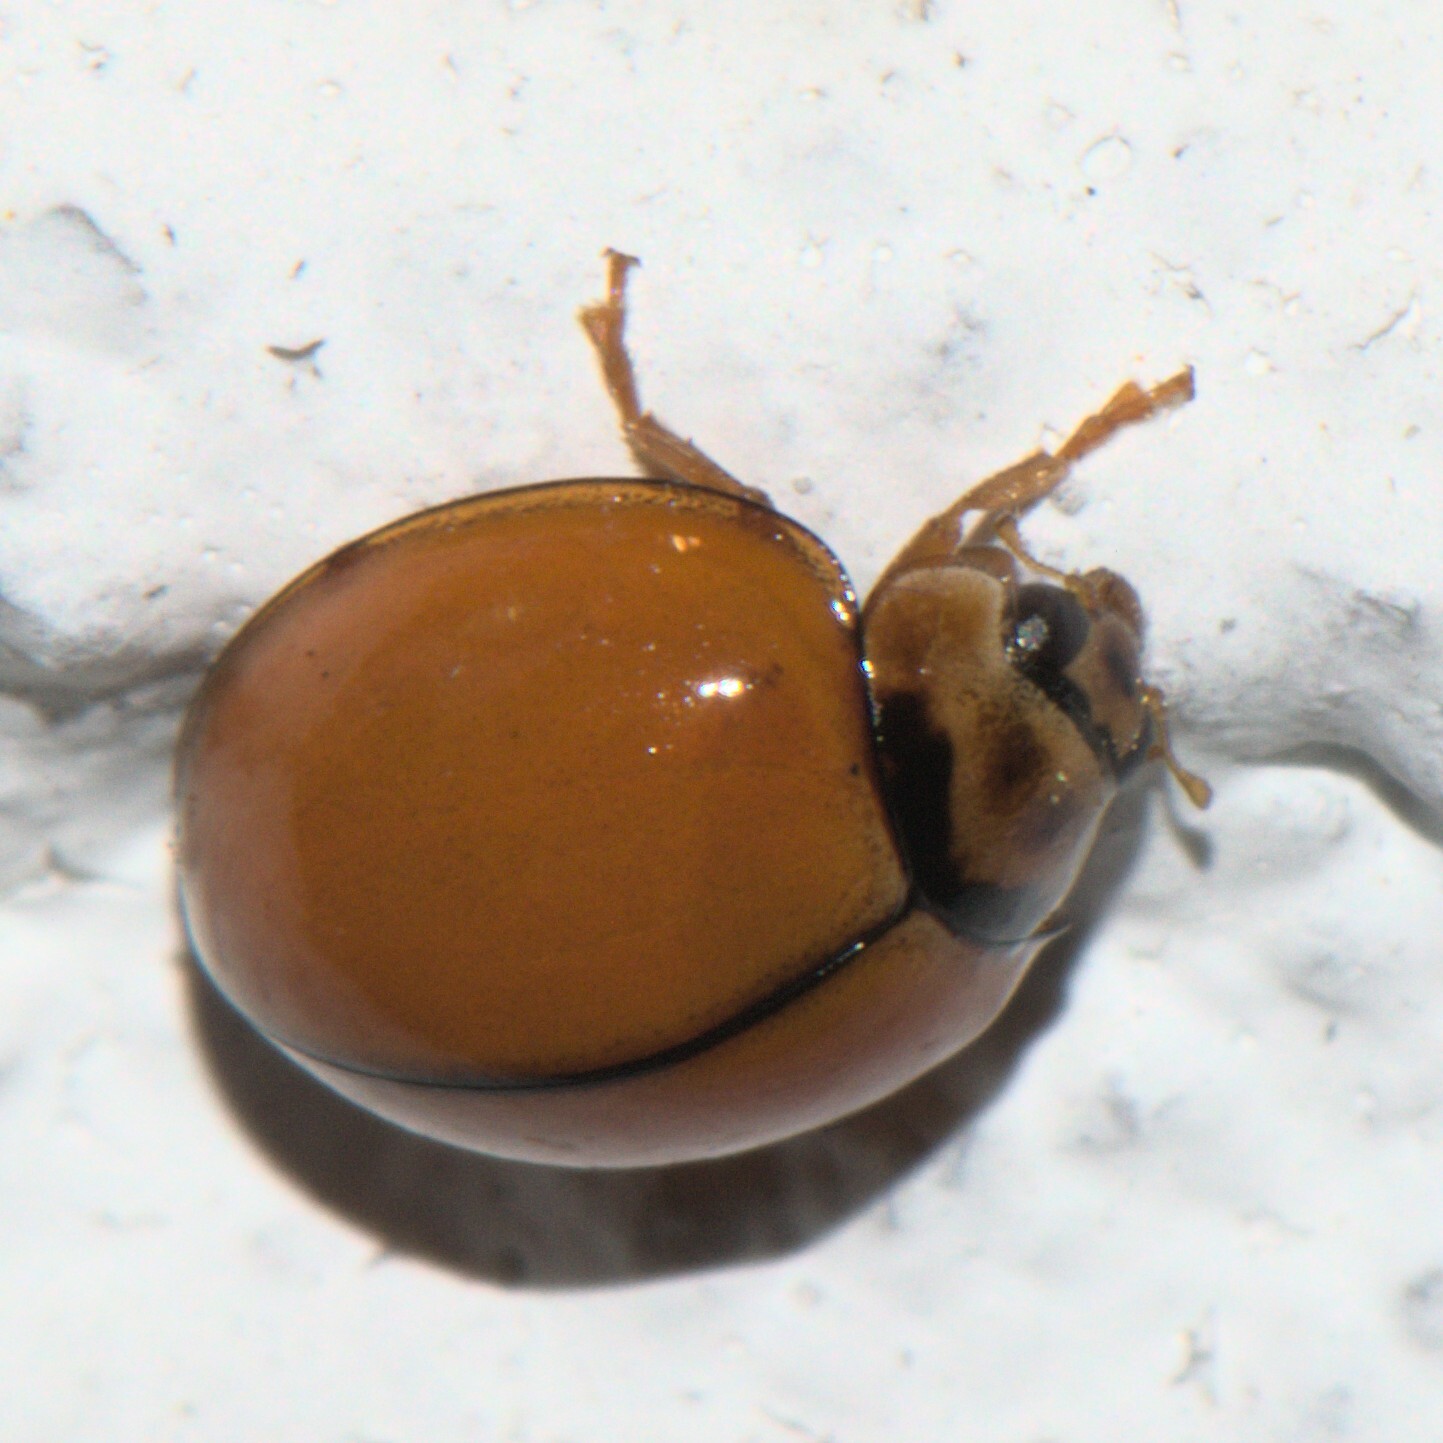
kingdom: Animalia
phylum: Arthropoda
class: Insecta
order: Coleoptera
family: Coccinellidae
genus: Micraspis
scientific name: Micraspis discolor
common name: Lady beetle
